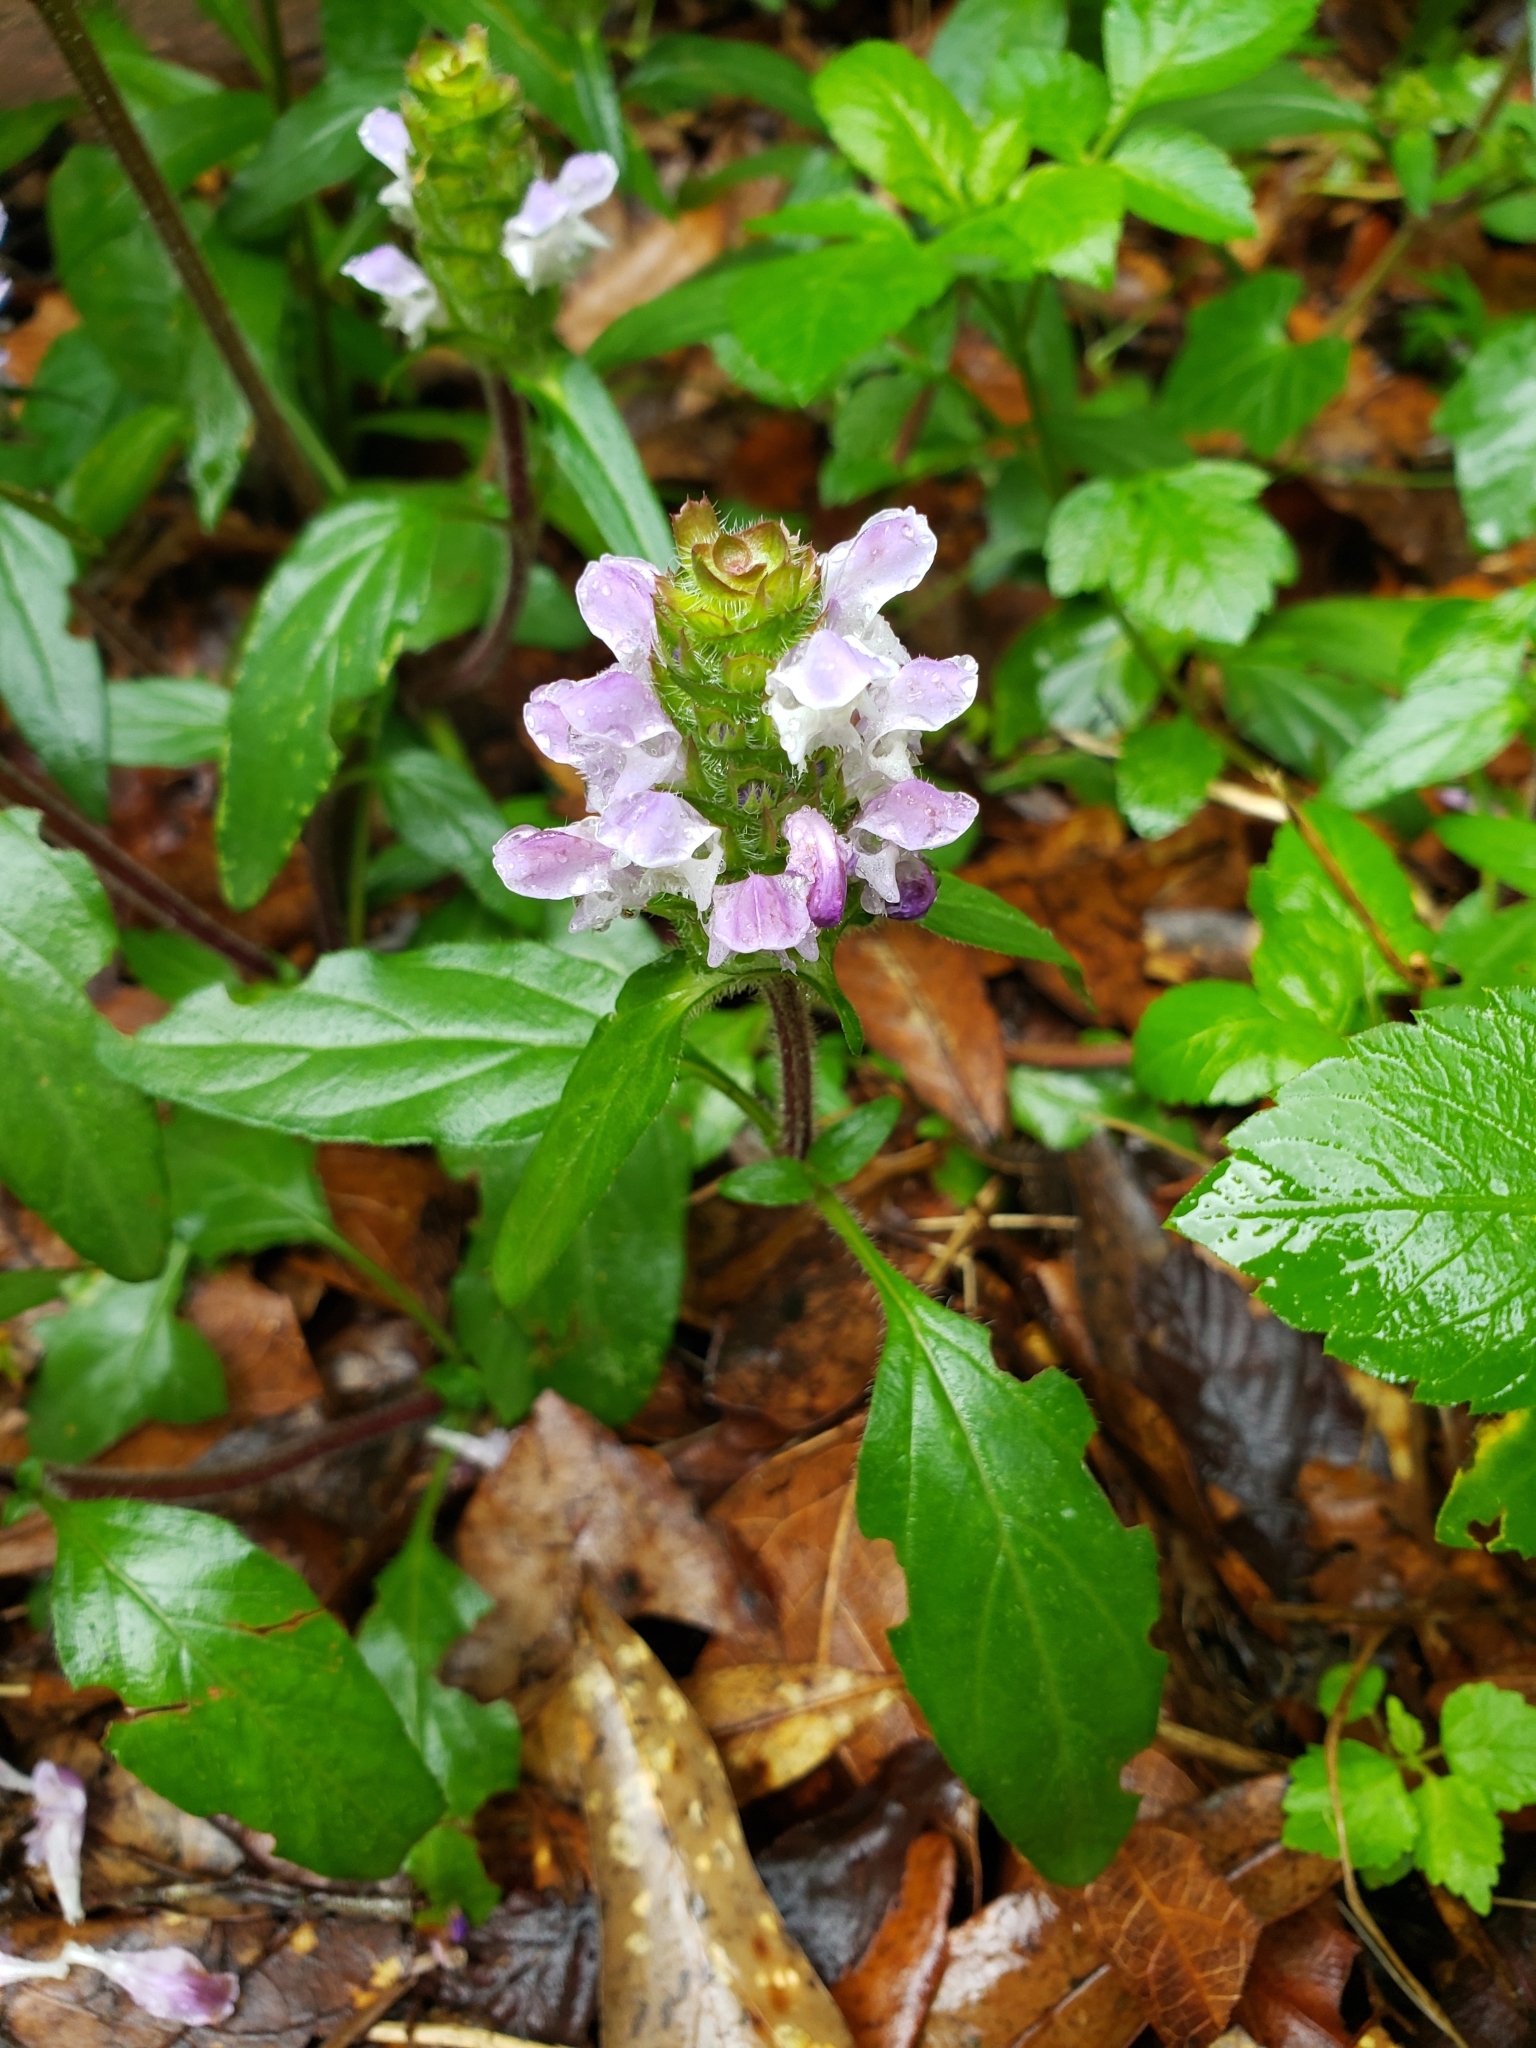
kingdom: Plantae
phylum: Tracheophyta
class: Magnoliopsida
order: Lamiales
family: Lamiaceae
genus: Prunella
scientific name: Prunella vulgaris
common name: Heal-all
